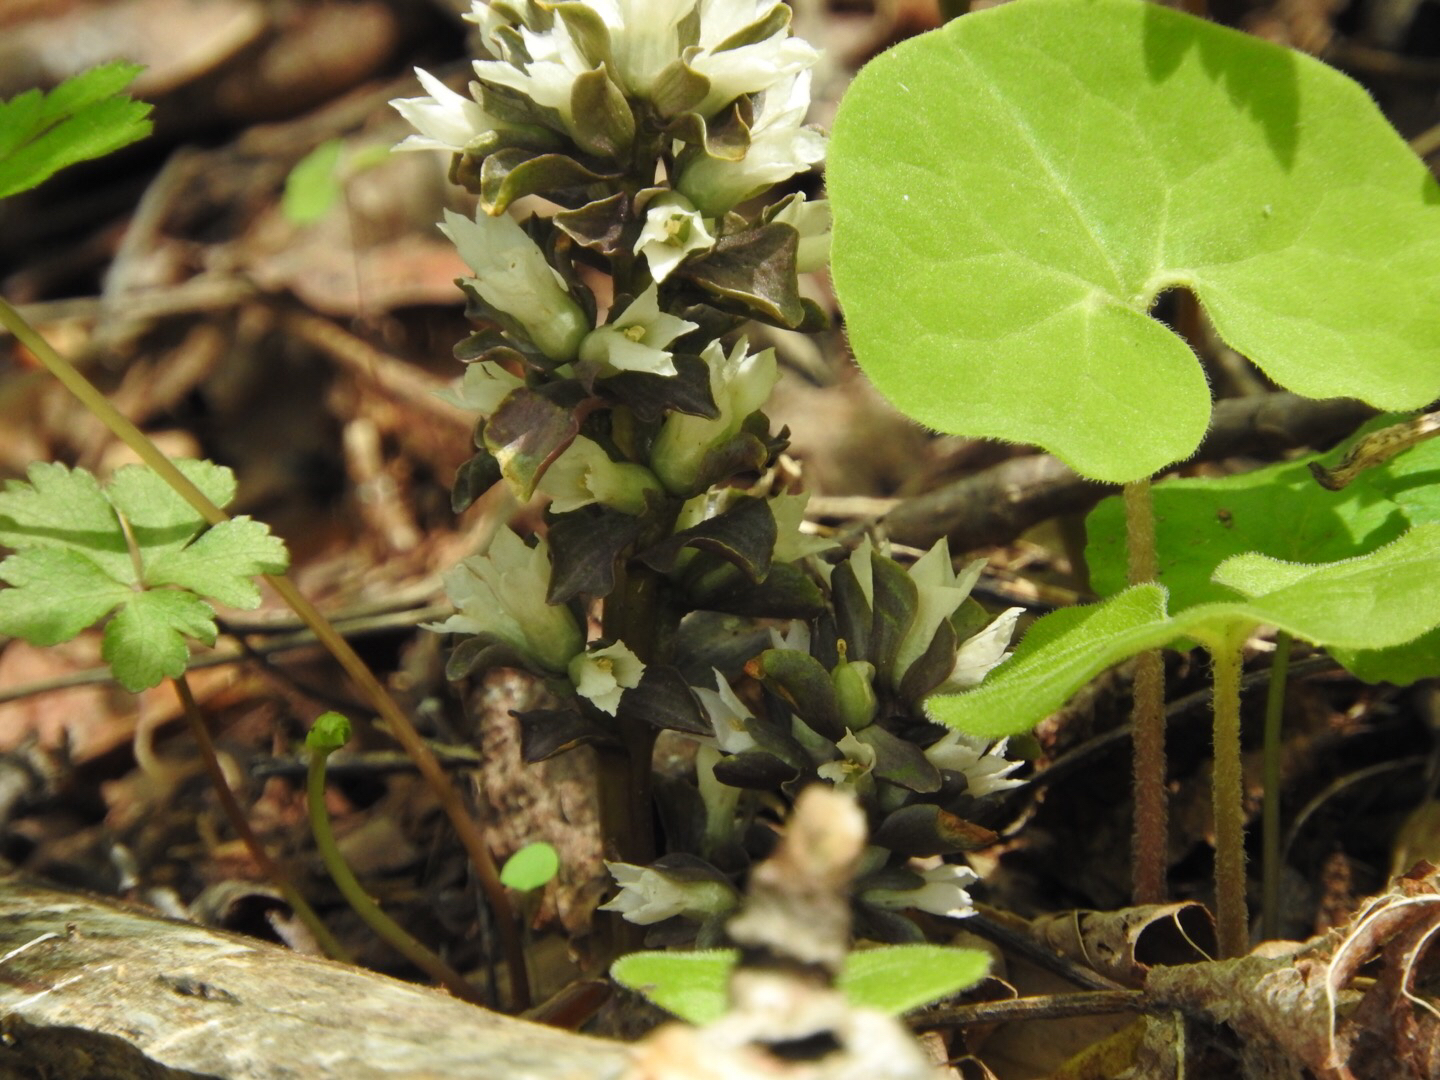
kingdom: Plantae
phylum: Tracheophyta
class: Magnoliopsida
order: Gentianales
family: Gentianaceae
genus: Obolaria
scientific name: Obolaria virginica
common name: Pennywort
